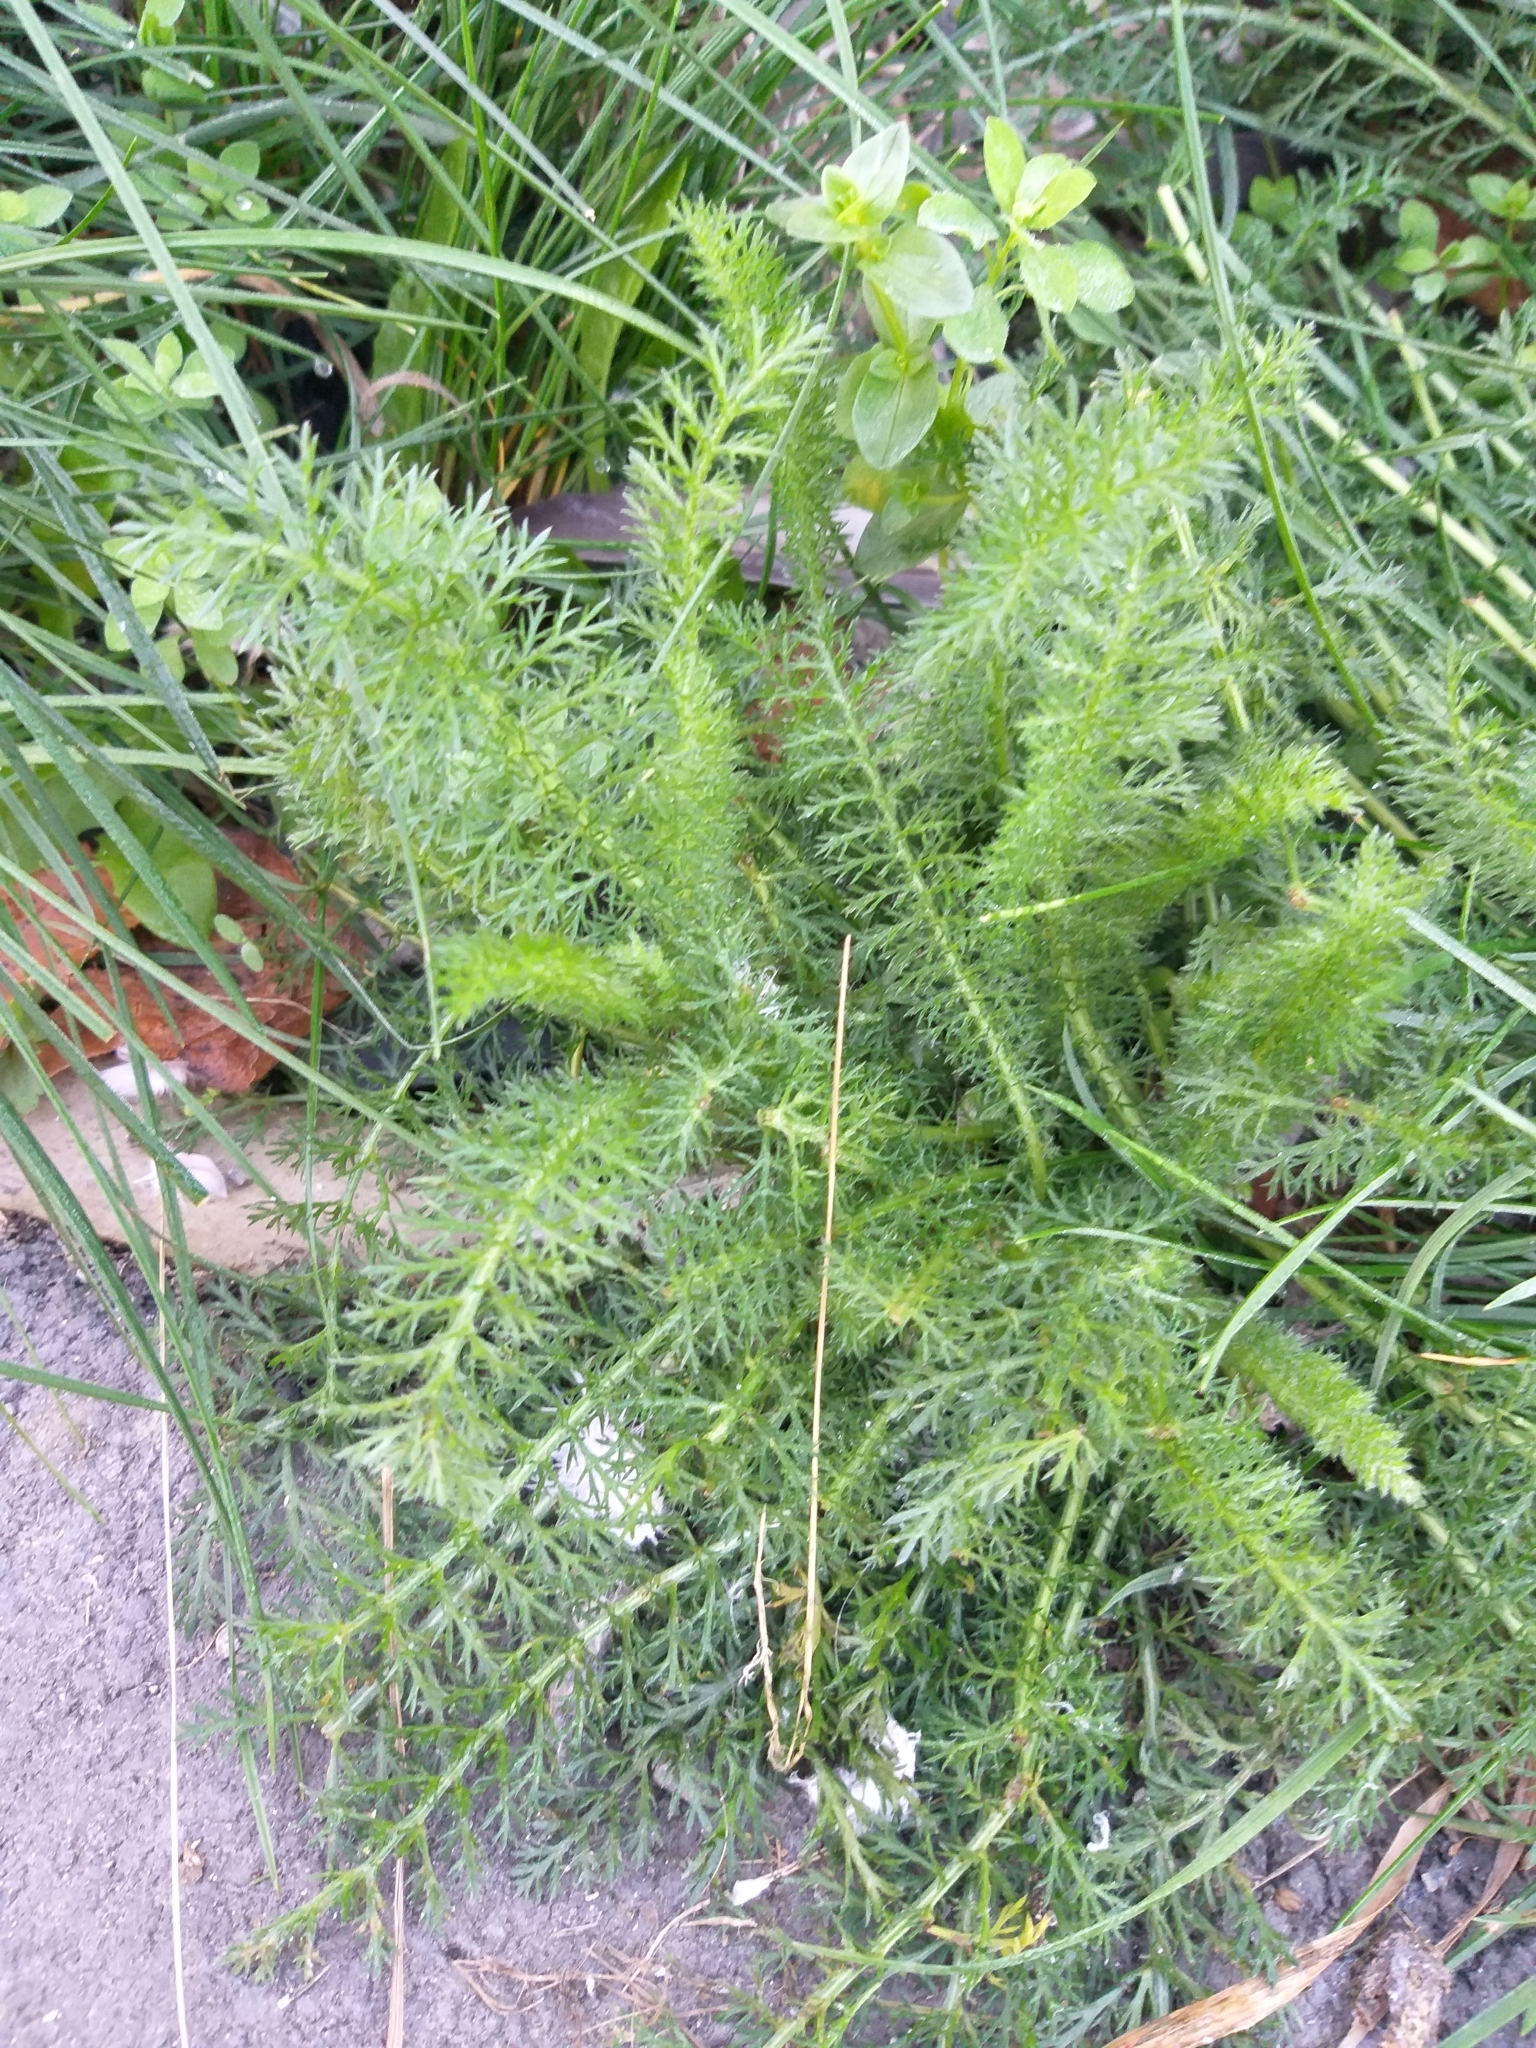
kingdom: Plantae
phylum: Tracheophyta
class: Magnoliopsida
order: Asterales
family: Asteraceae
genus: Achillea
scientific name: Achillea millefolium
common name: Yarrow
